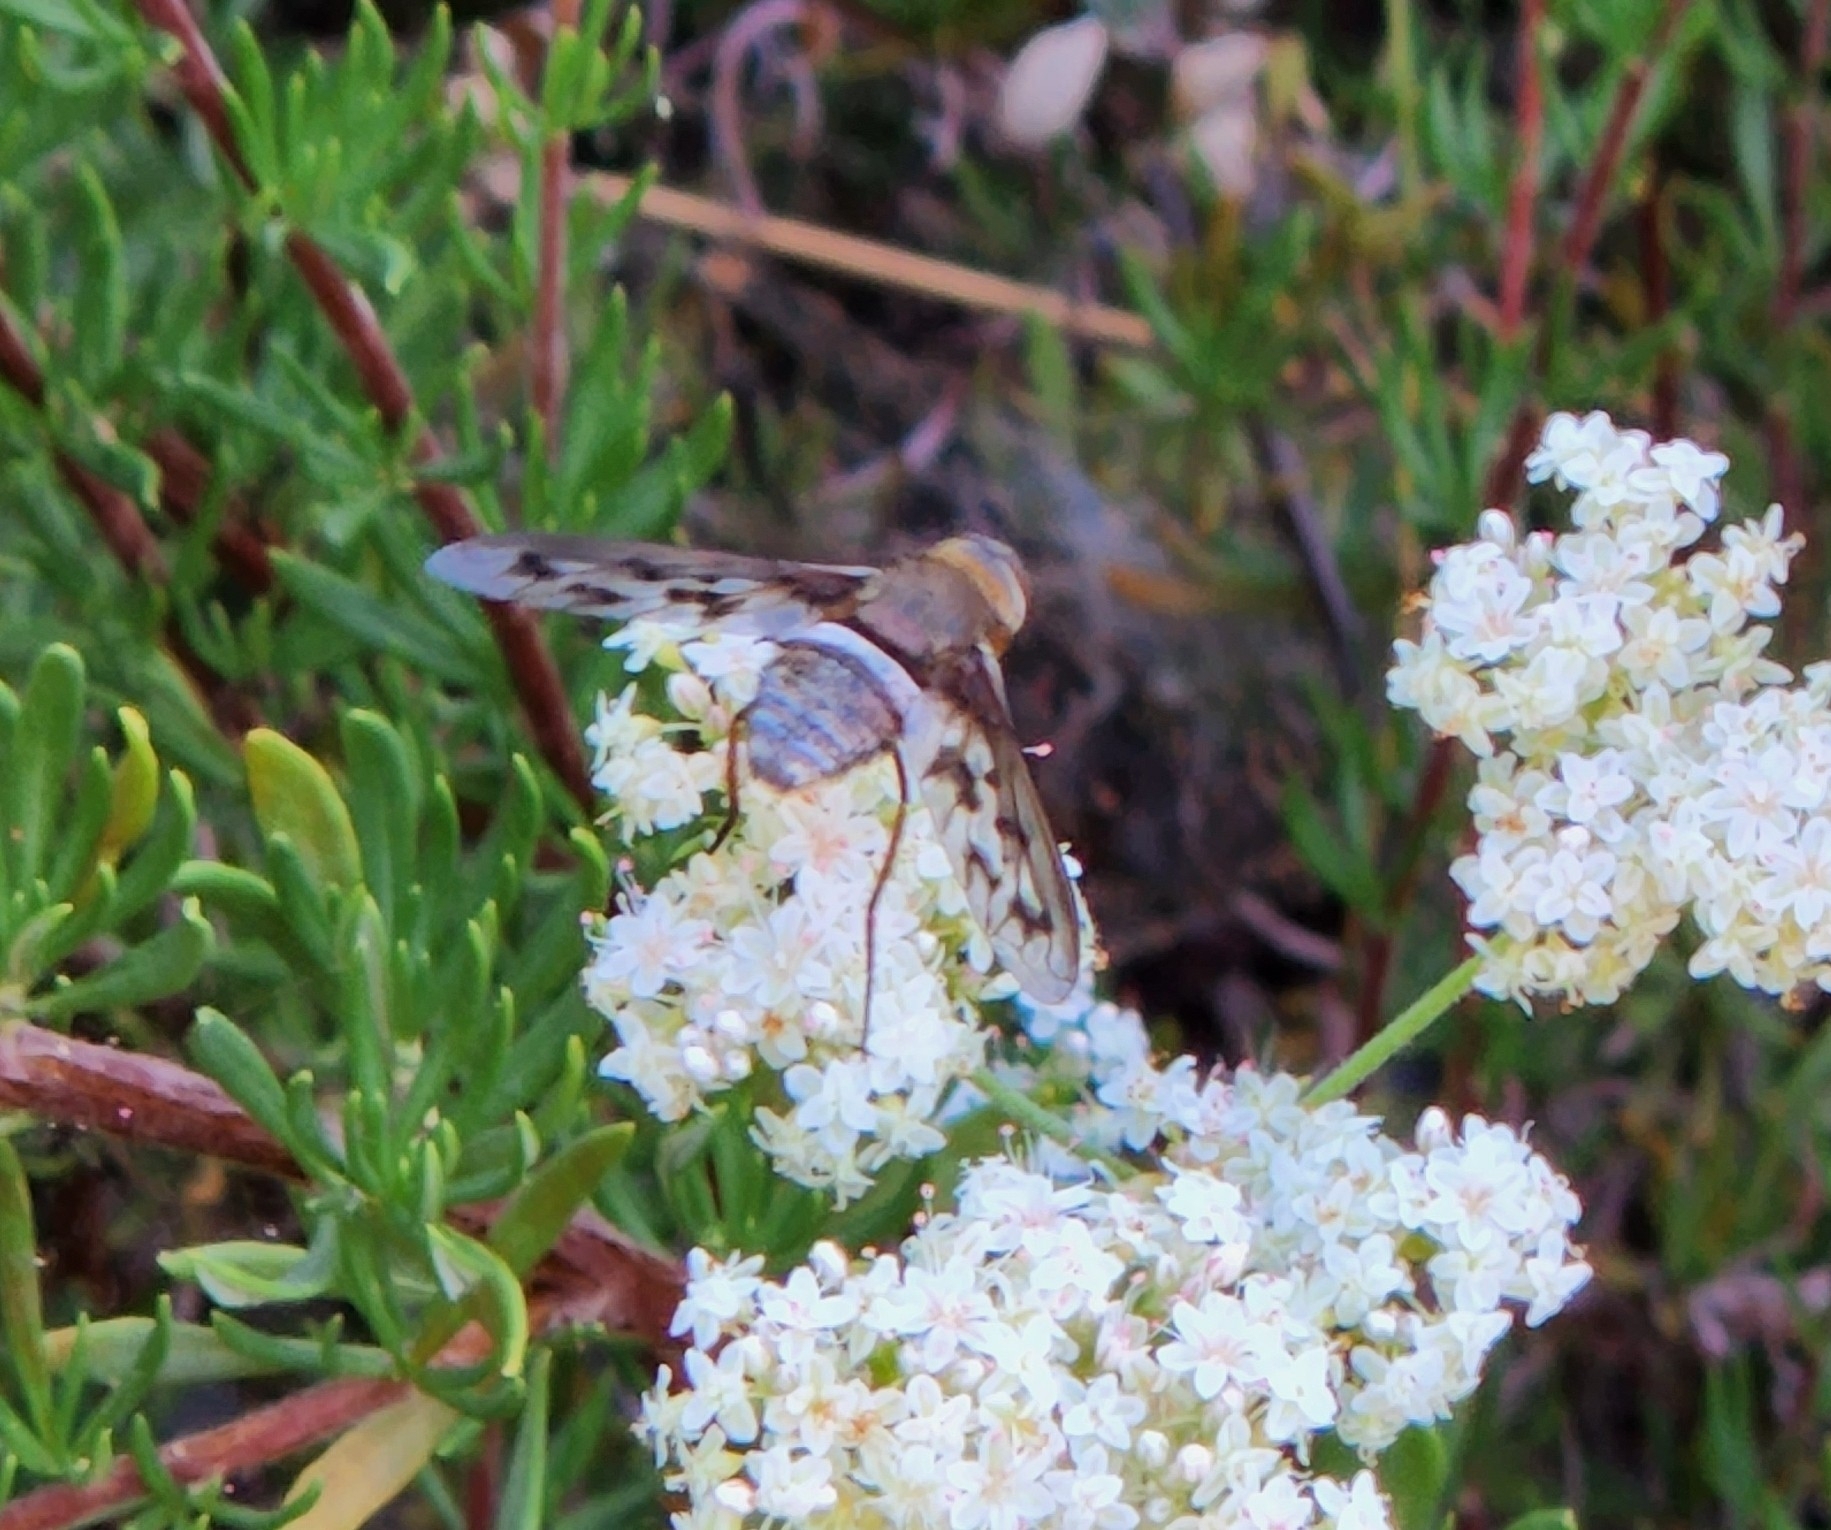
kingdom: Animalia
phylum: Arthropoda
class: Insecta
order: Diptera
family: Bombyliidae
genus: Nyia
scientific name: Nyia gazophylax
